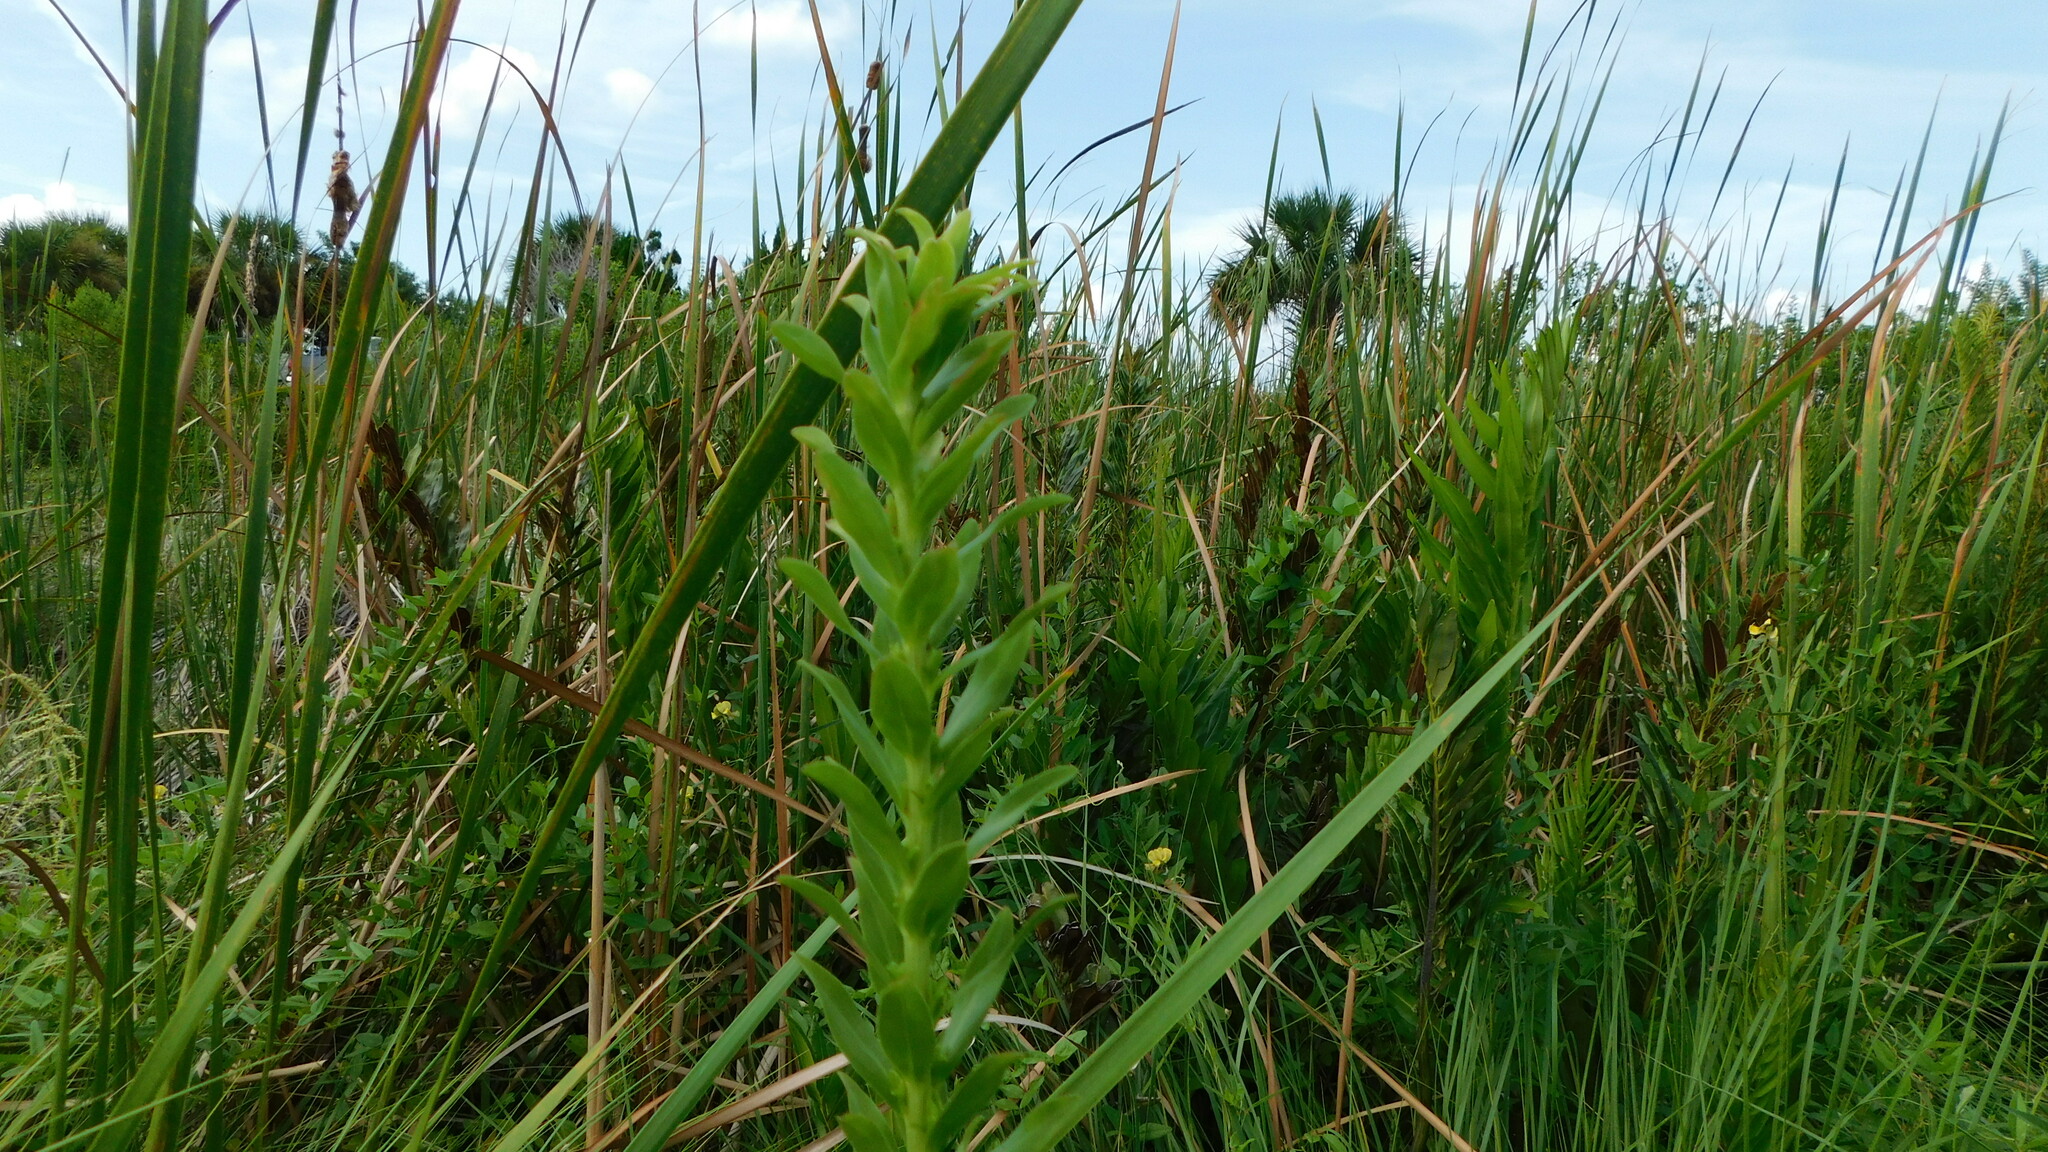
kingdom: Plantae
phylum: Tracheophyta
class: Magnoliopsida
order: Asterales
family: Asteraceae
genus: Solidago
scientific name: Solidago mexicana
